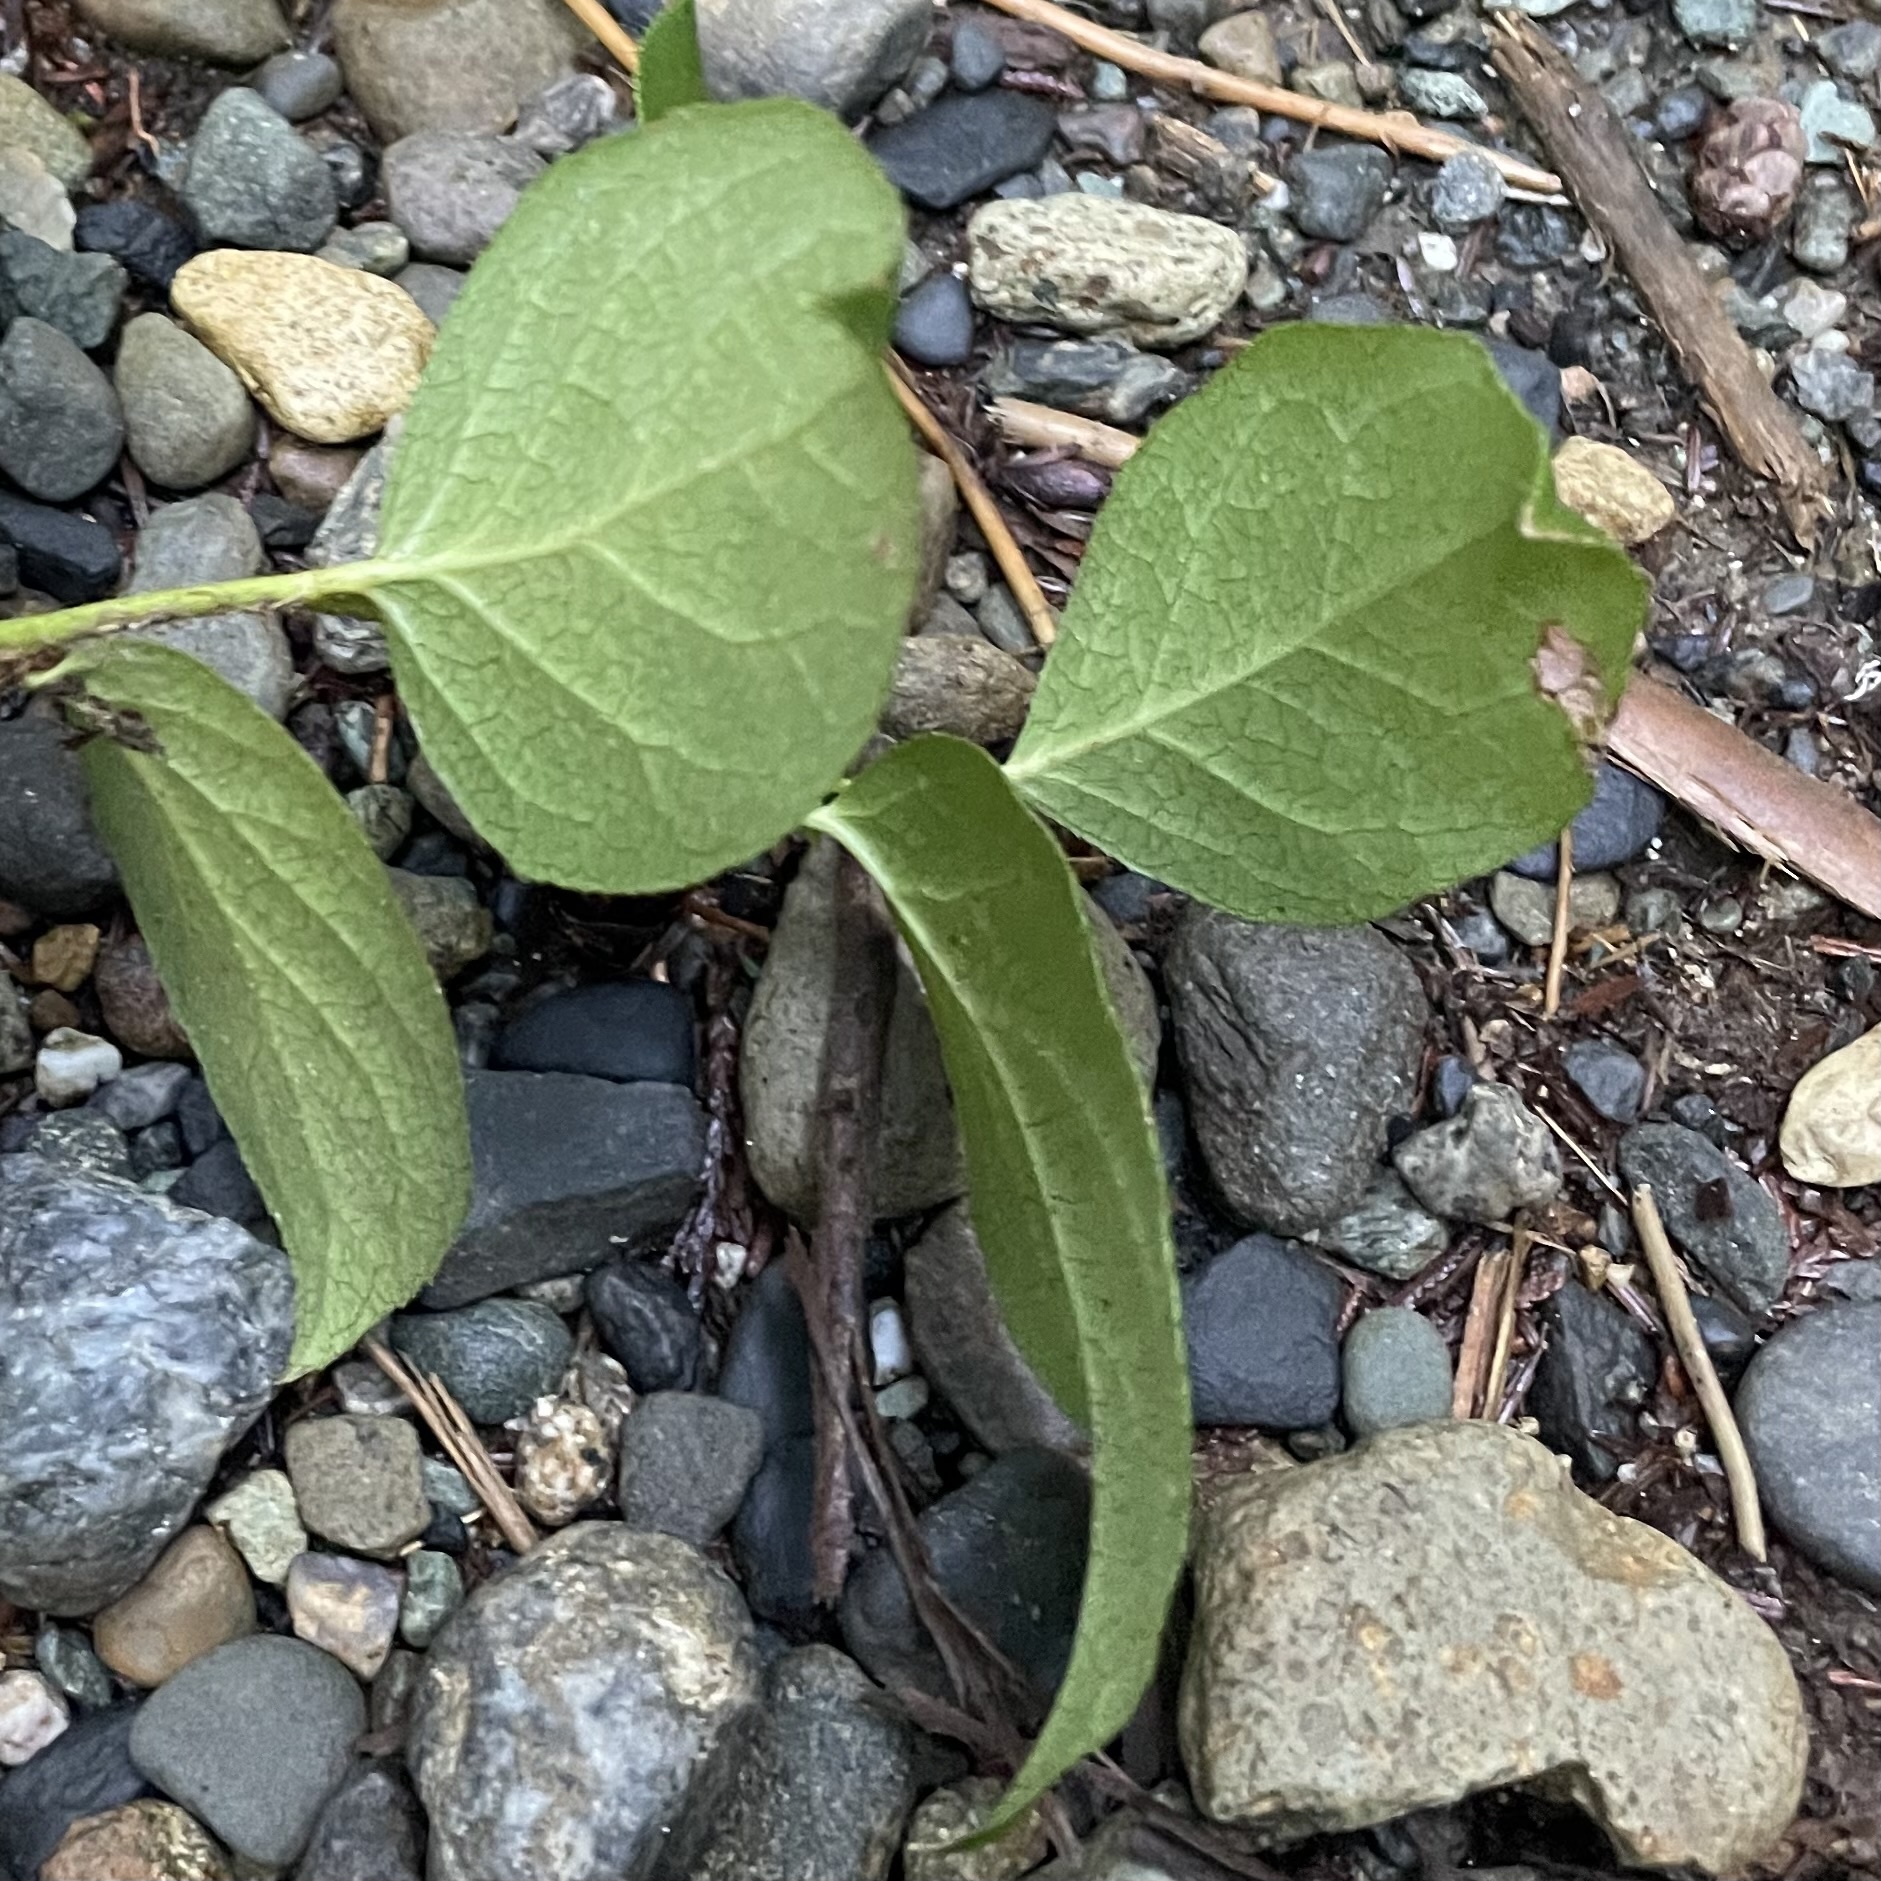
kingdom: Plantae
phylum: Tracheophyta
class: Magnoliopsida
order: Ericales
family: Ericaceae
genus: Gaultheria
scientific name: Gaultheria shallon
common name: Shallon
